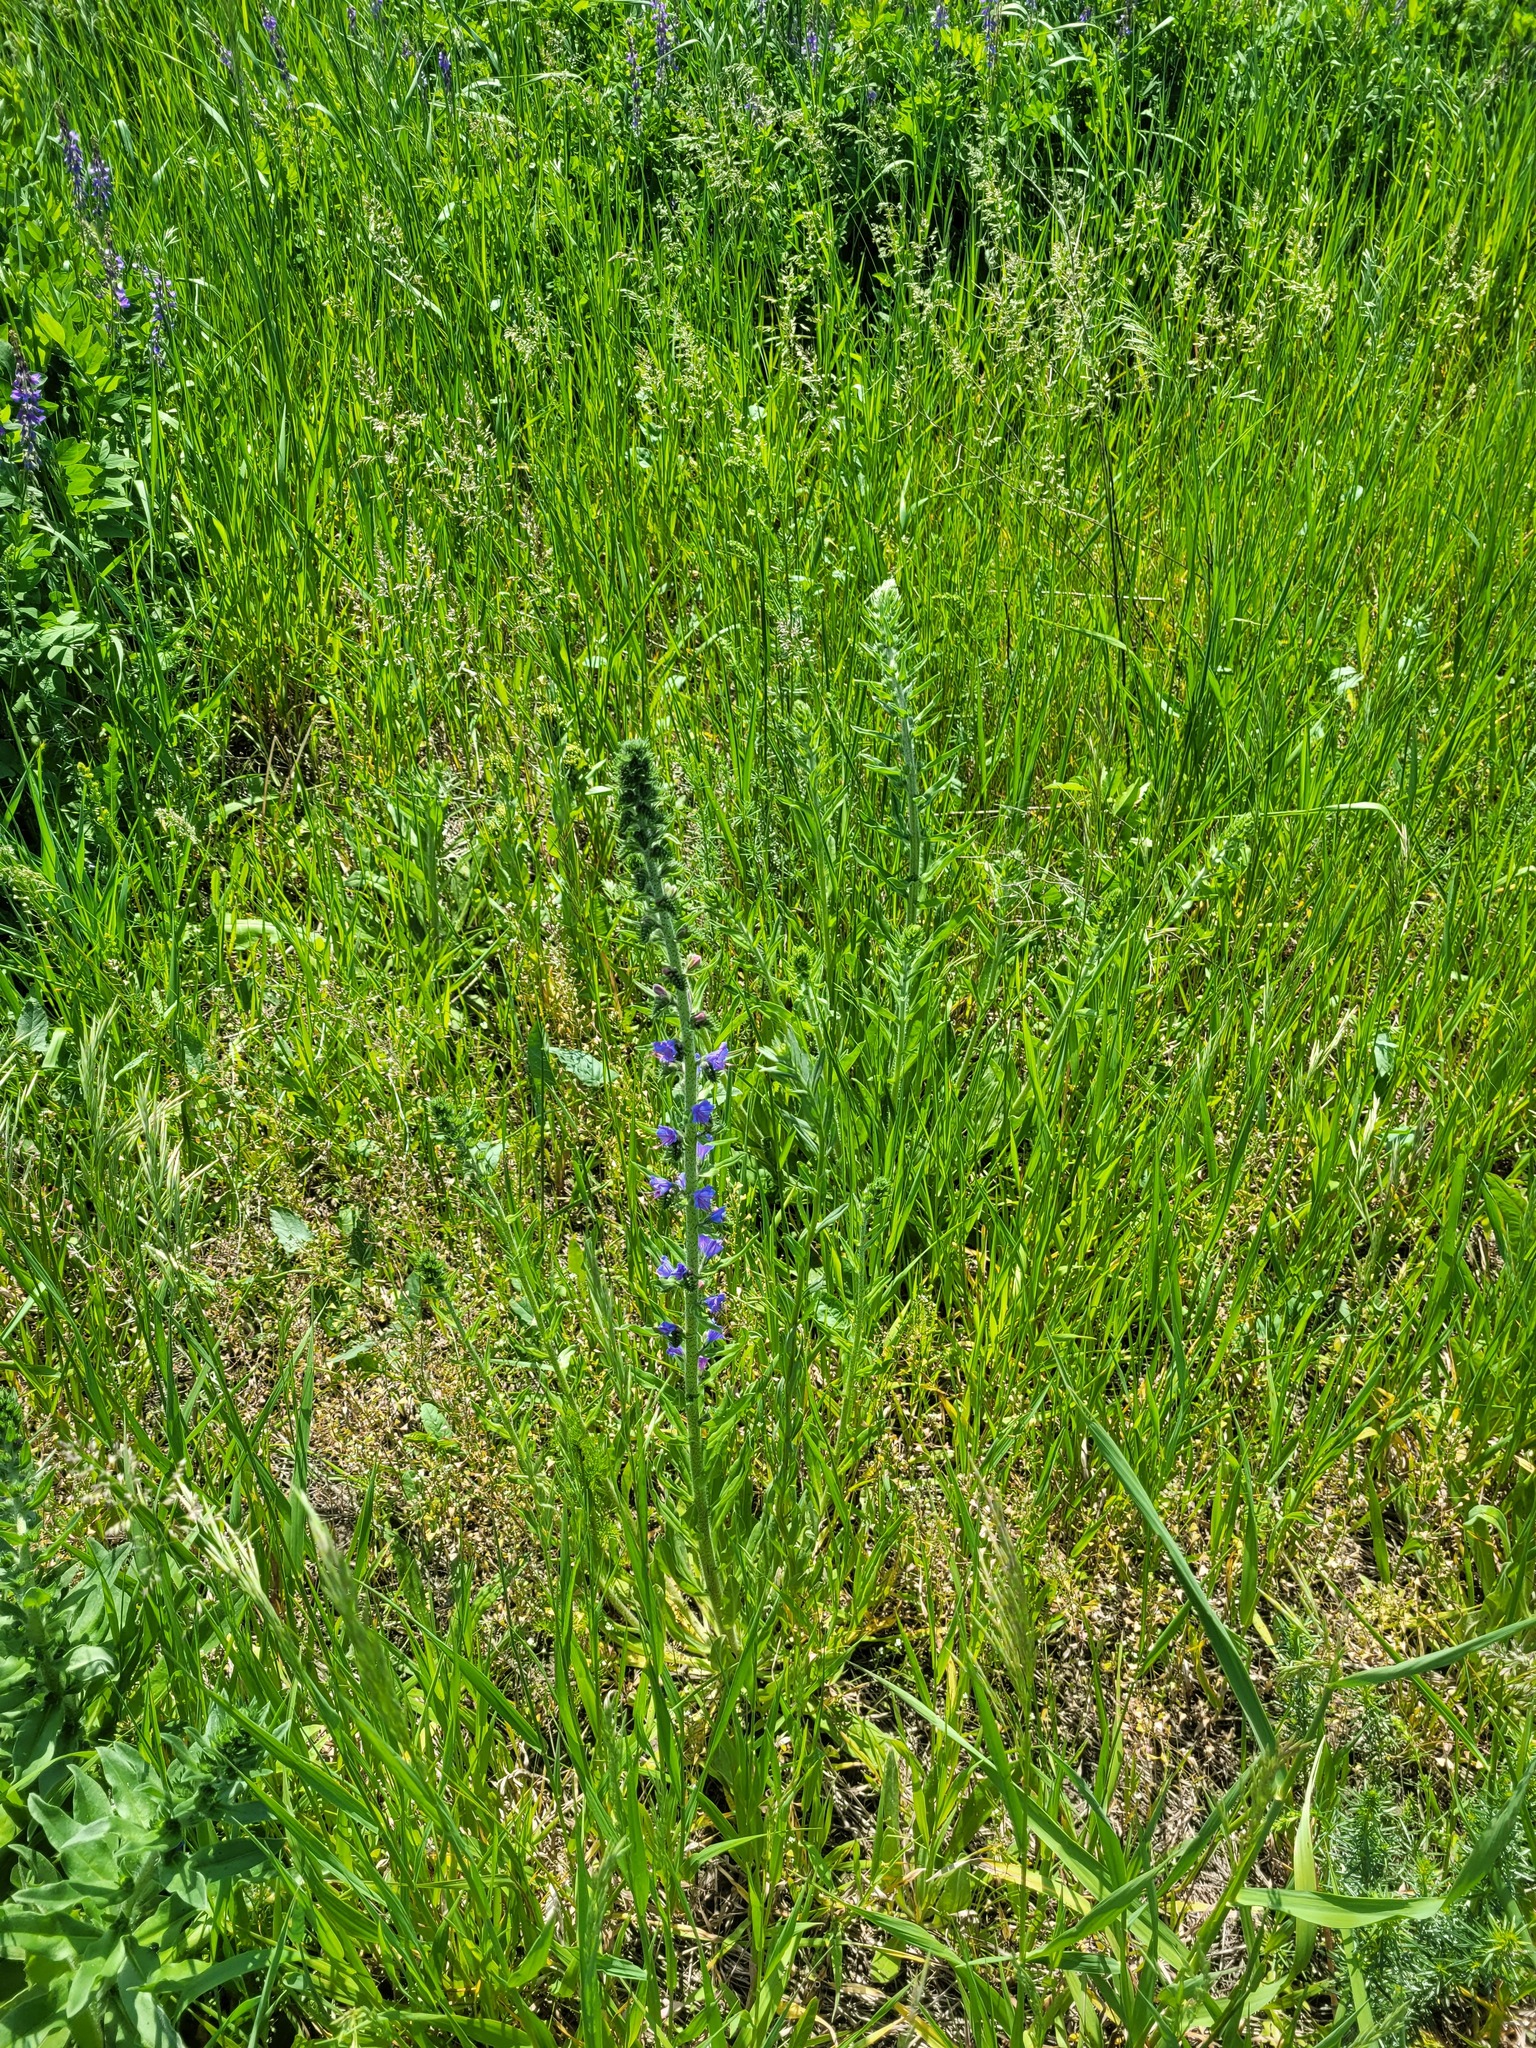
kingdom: Plantae
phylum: Tracheophyta
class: Magnoliopsida
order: Boraginales
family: Boraginaceae
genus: Echium
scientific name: Echium vulgare
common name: Common viper's bugloss
